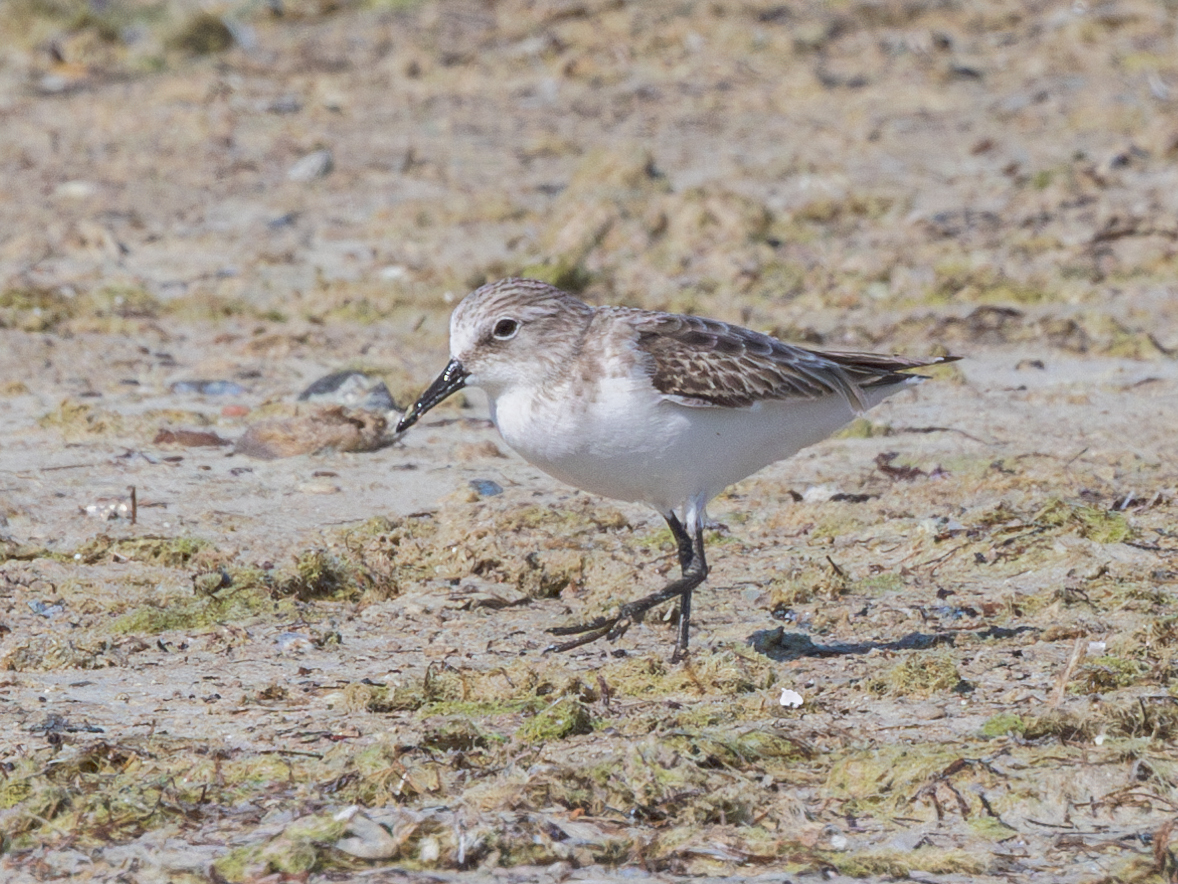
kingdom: Animalia
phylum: Chordata
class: Aves
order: Charadriiformes
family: Scolopacidae
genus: Calidris
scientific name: Calidris minuta
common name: Little stint
